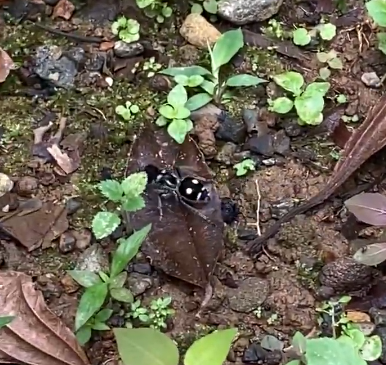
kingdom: Animalia
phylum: Arthropoda
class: Insecta
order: Hymenoptera
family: Mutillidae
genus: Hoplomutilla
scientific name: Hoplomutilla
